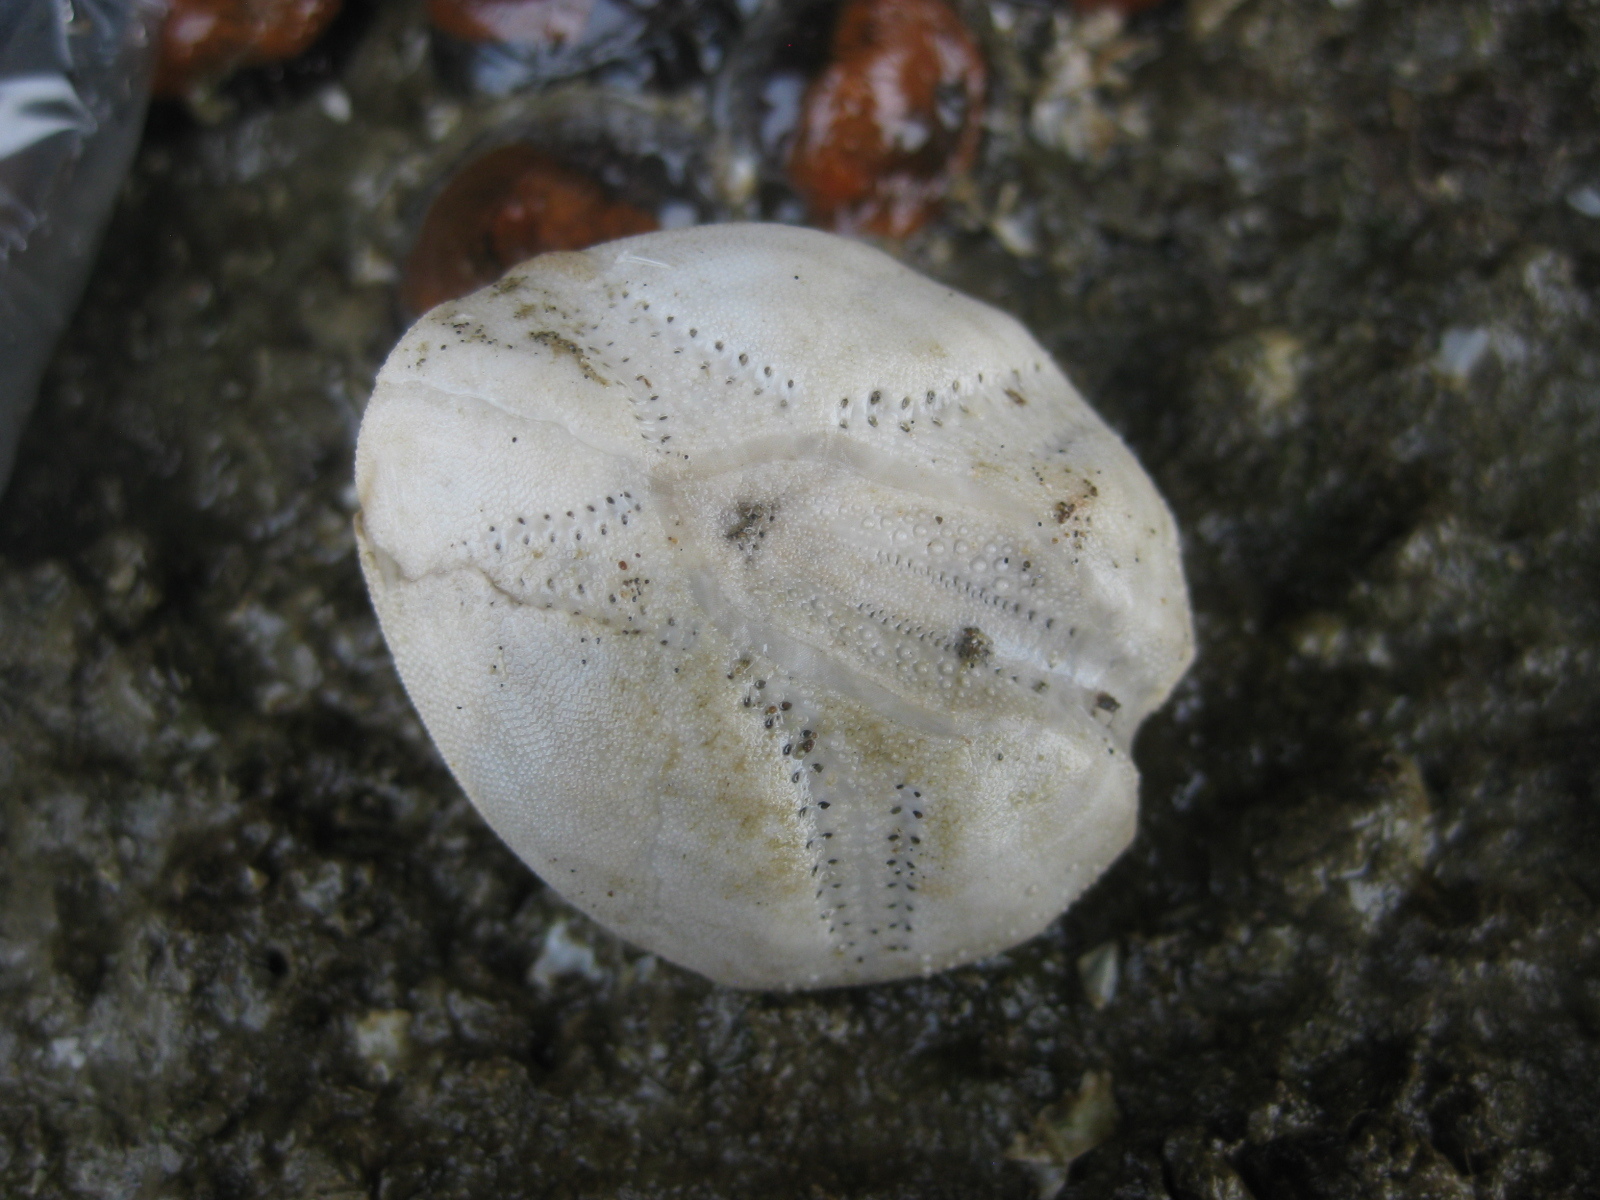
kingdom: Animalia
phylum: Echinodermata
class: Echinoidea
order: Spatangoida
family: Loveniidae
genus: Echinocardium
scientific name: Echinocardium cordatum
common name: Heart-urchin
